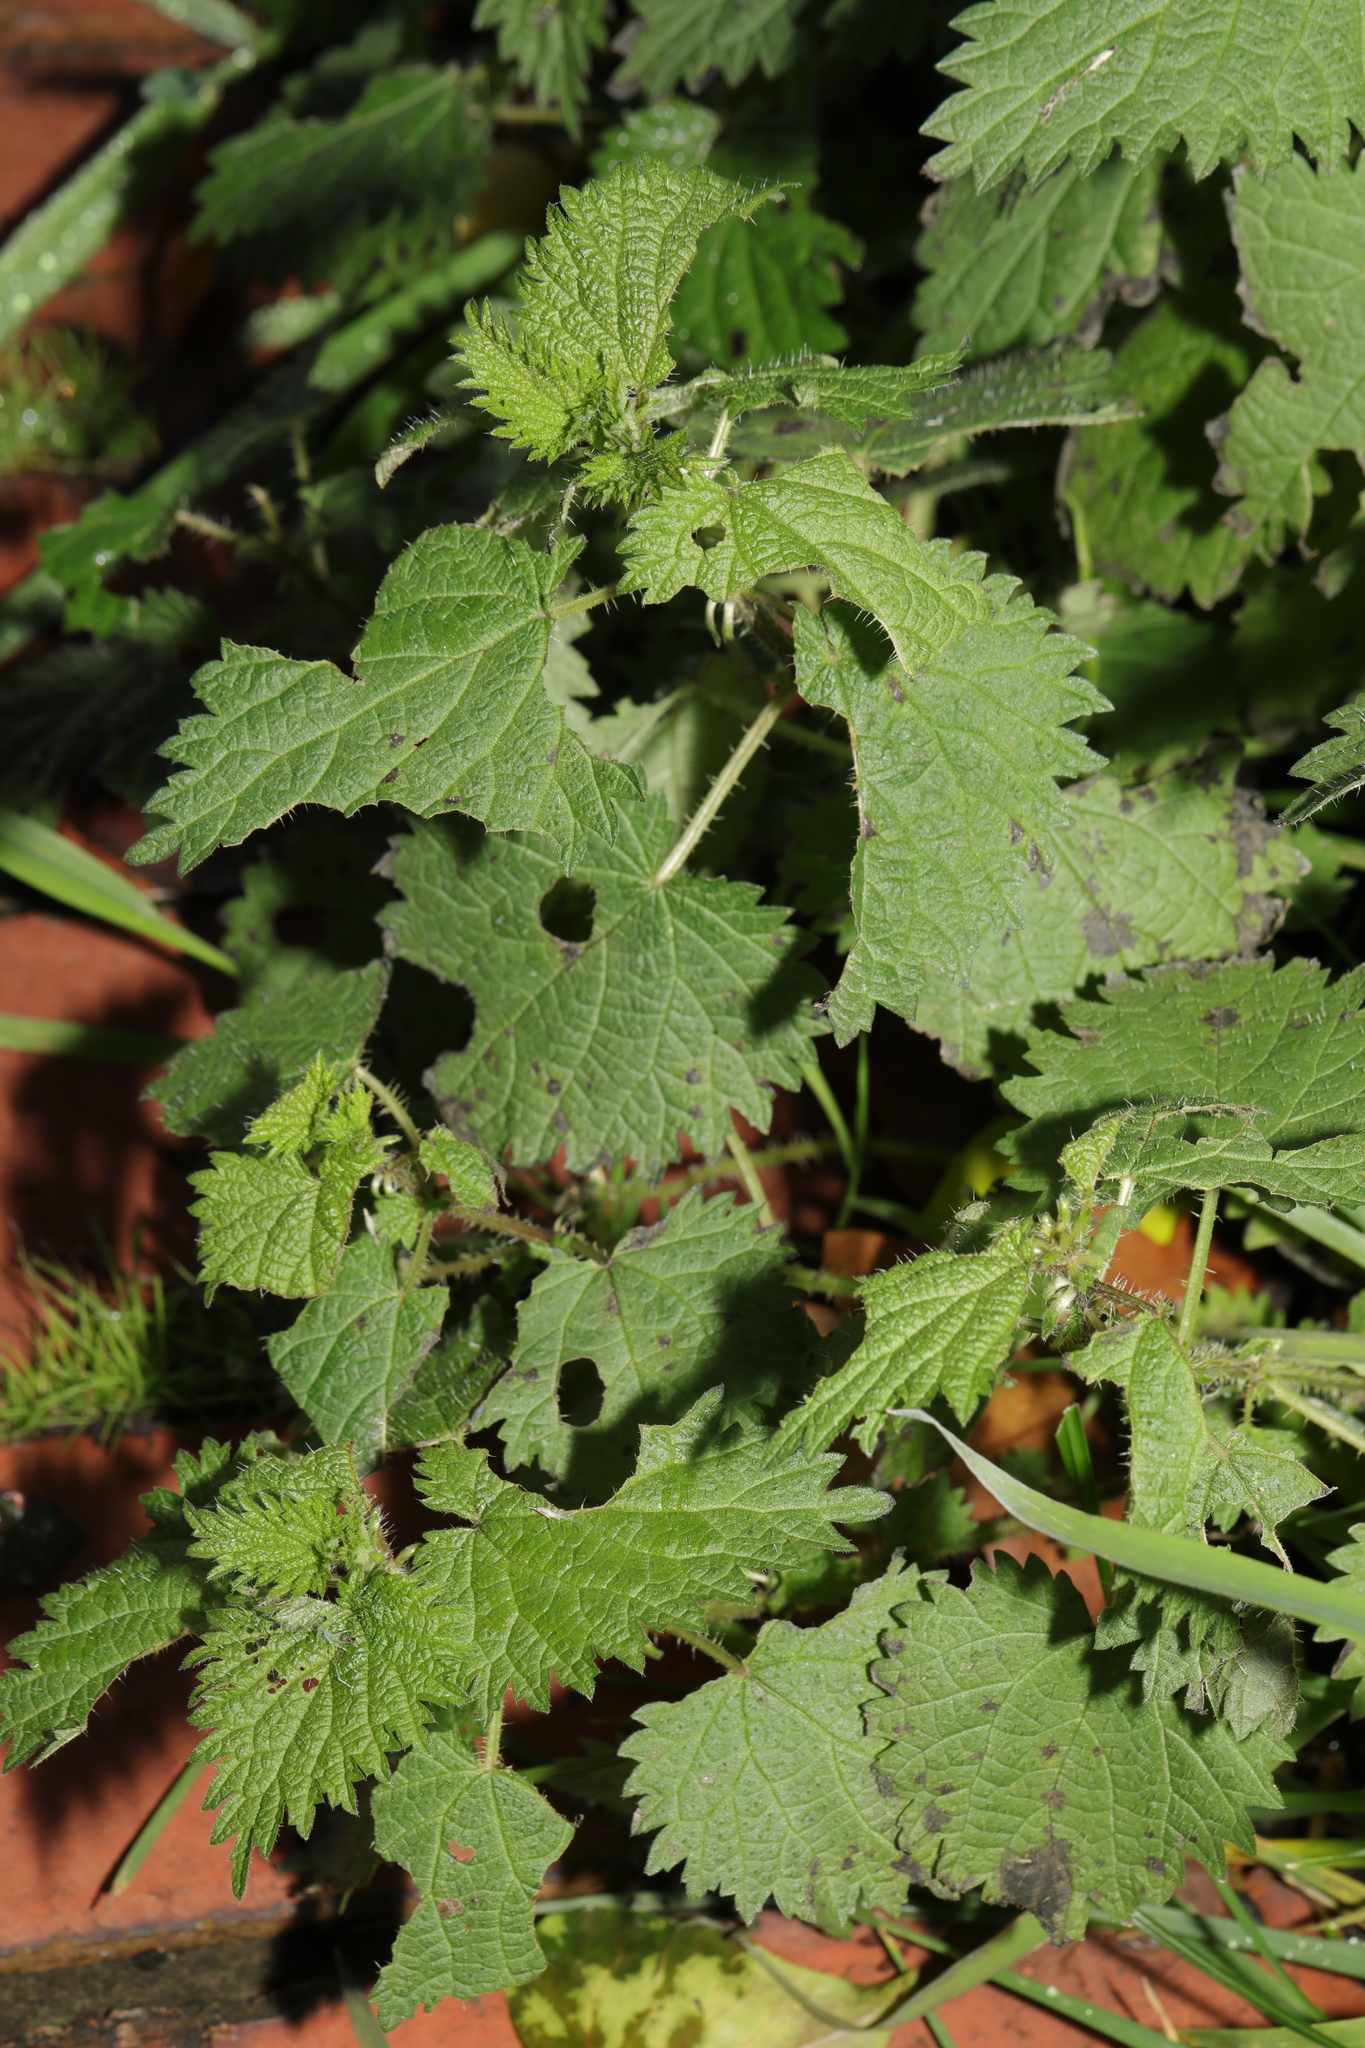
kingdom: Plantae
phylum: Tracheophyta
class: Magnoliopsida
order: Rosales
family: Urticaceae
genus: Urtica
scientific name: Urtica dioica
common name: Common nettle
